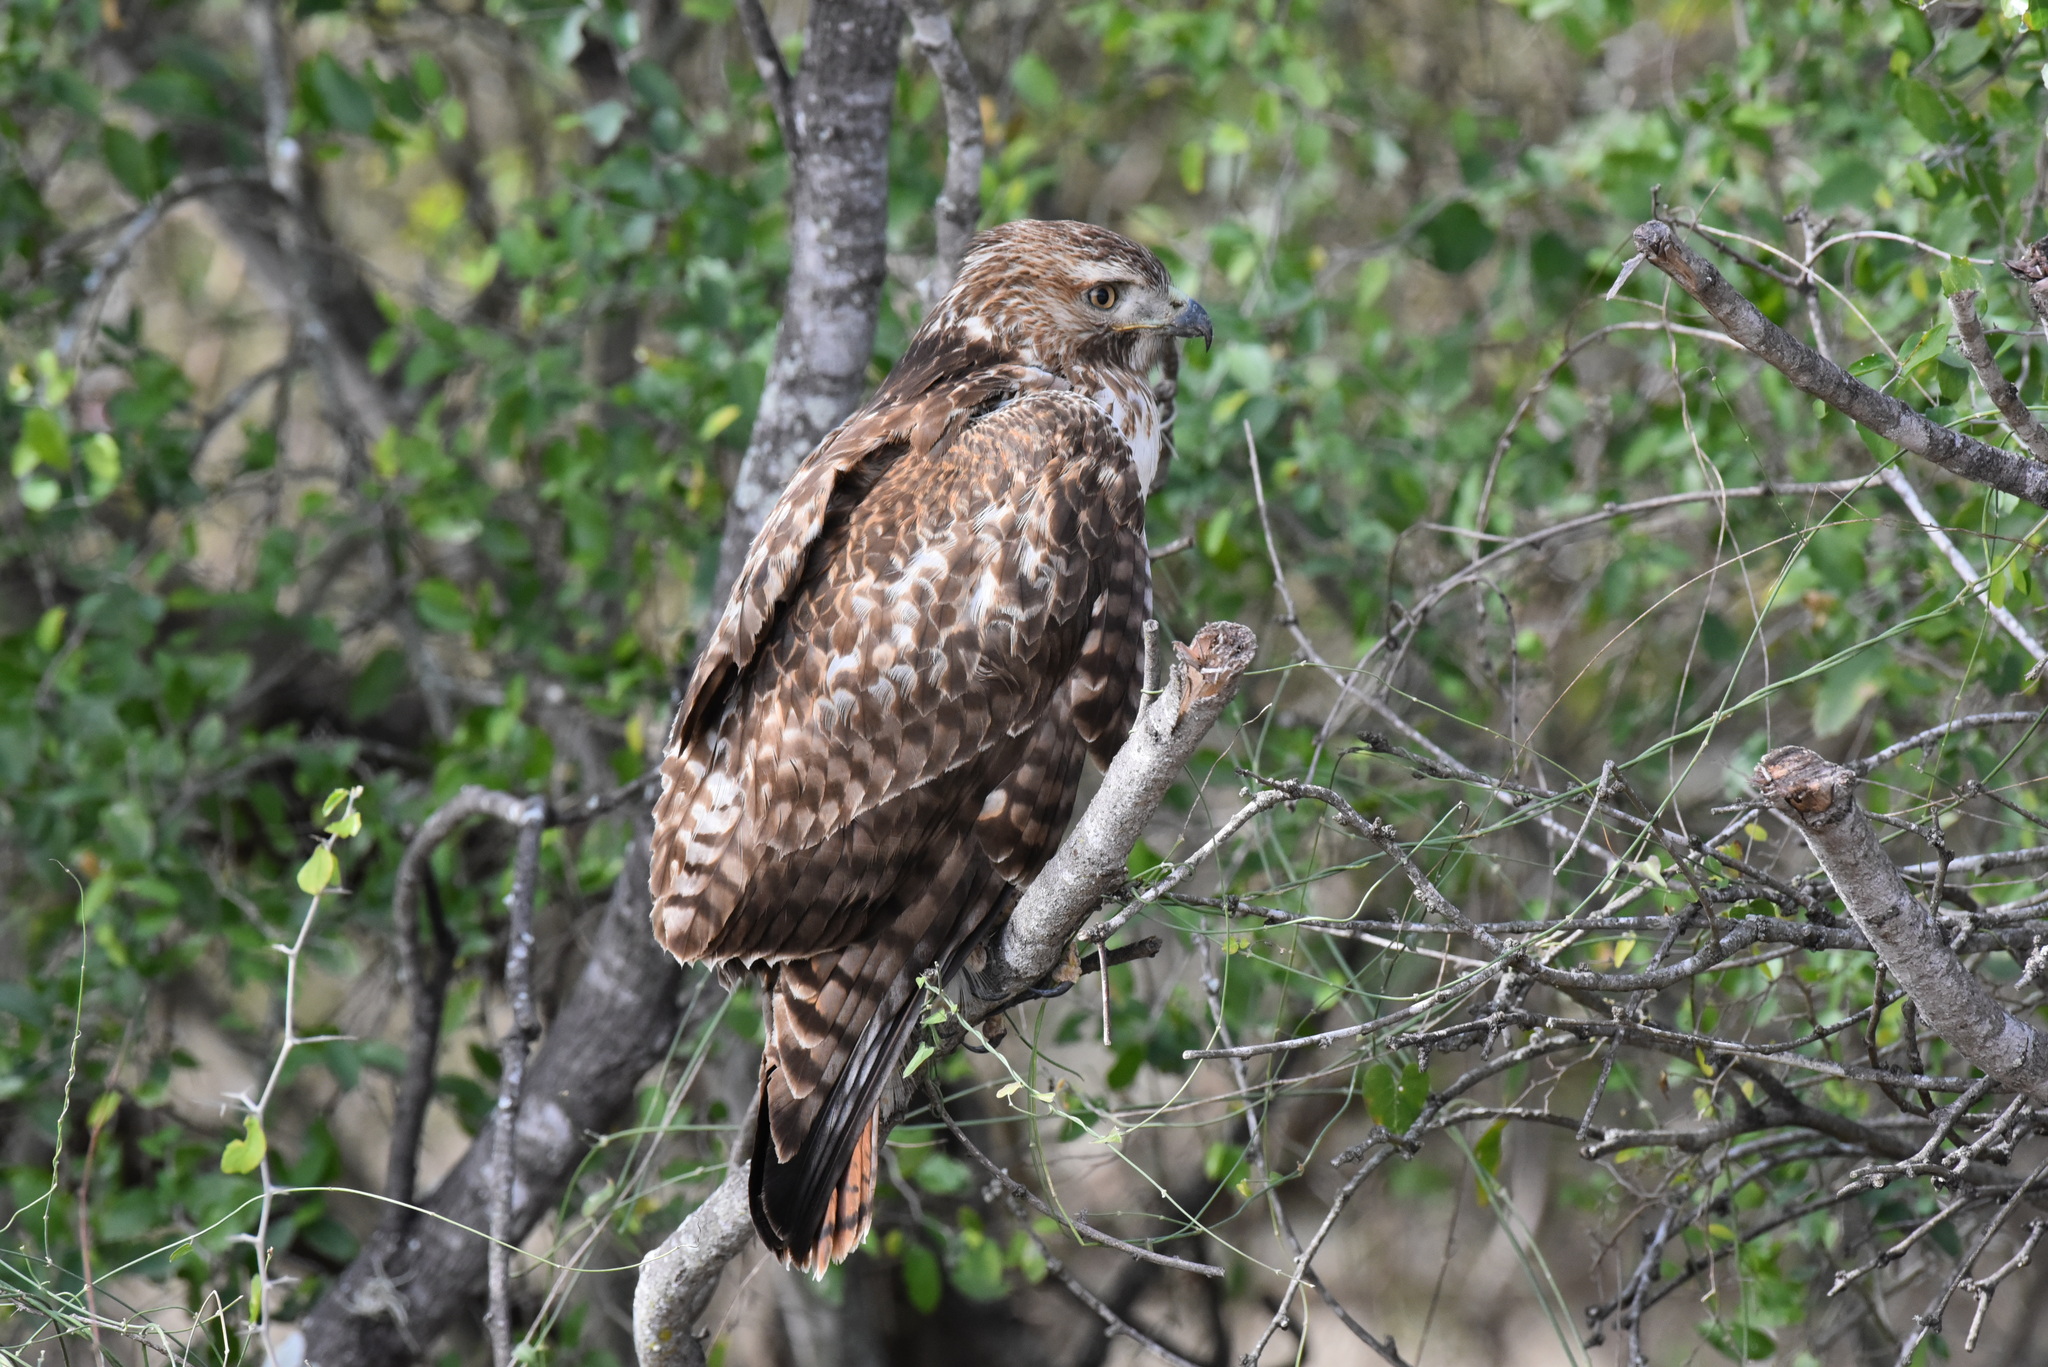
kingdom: Animalia
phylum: Chordata
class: Aves
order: Accipitriformes
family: Accipitridae
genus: Buteo
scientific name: Buteo jamaicensis
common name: Red-tailed hawk
